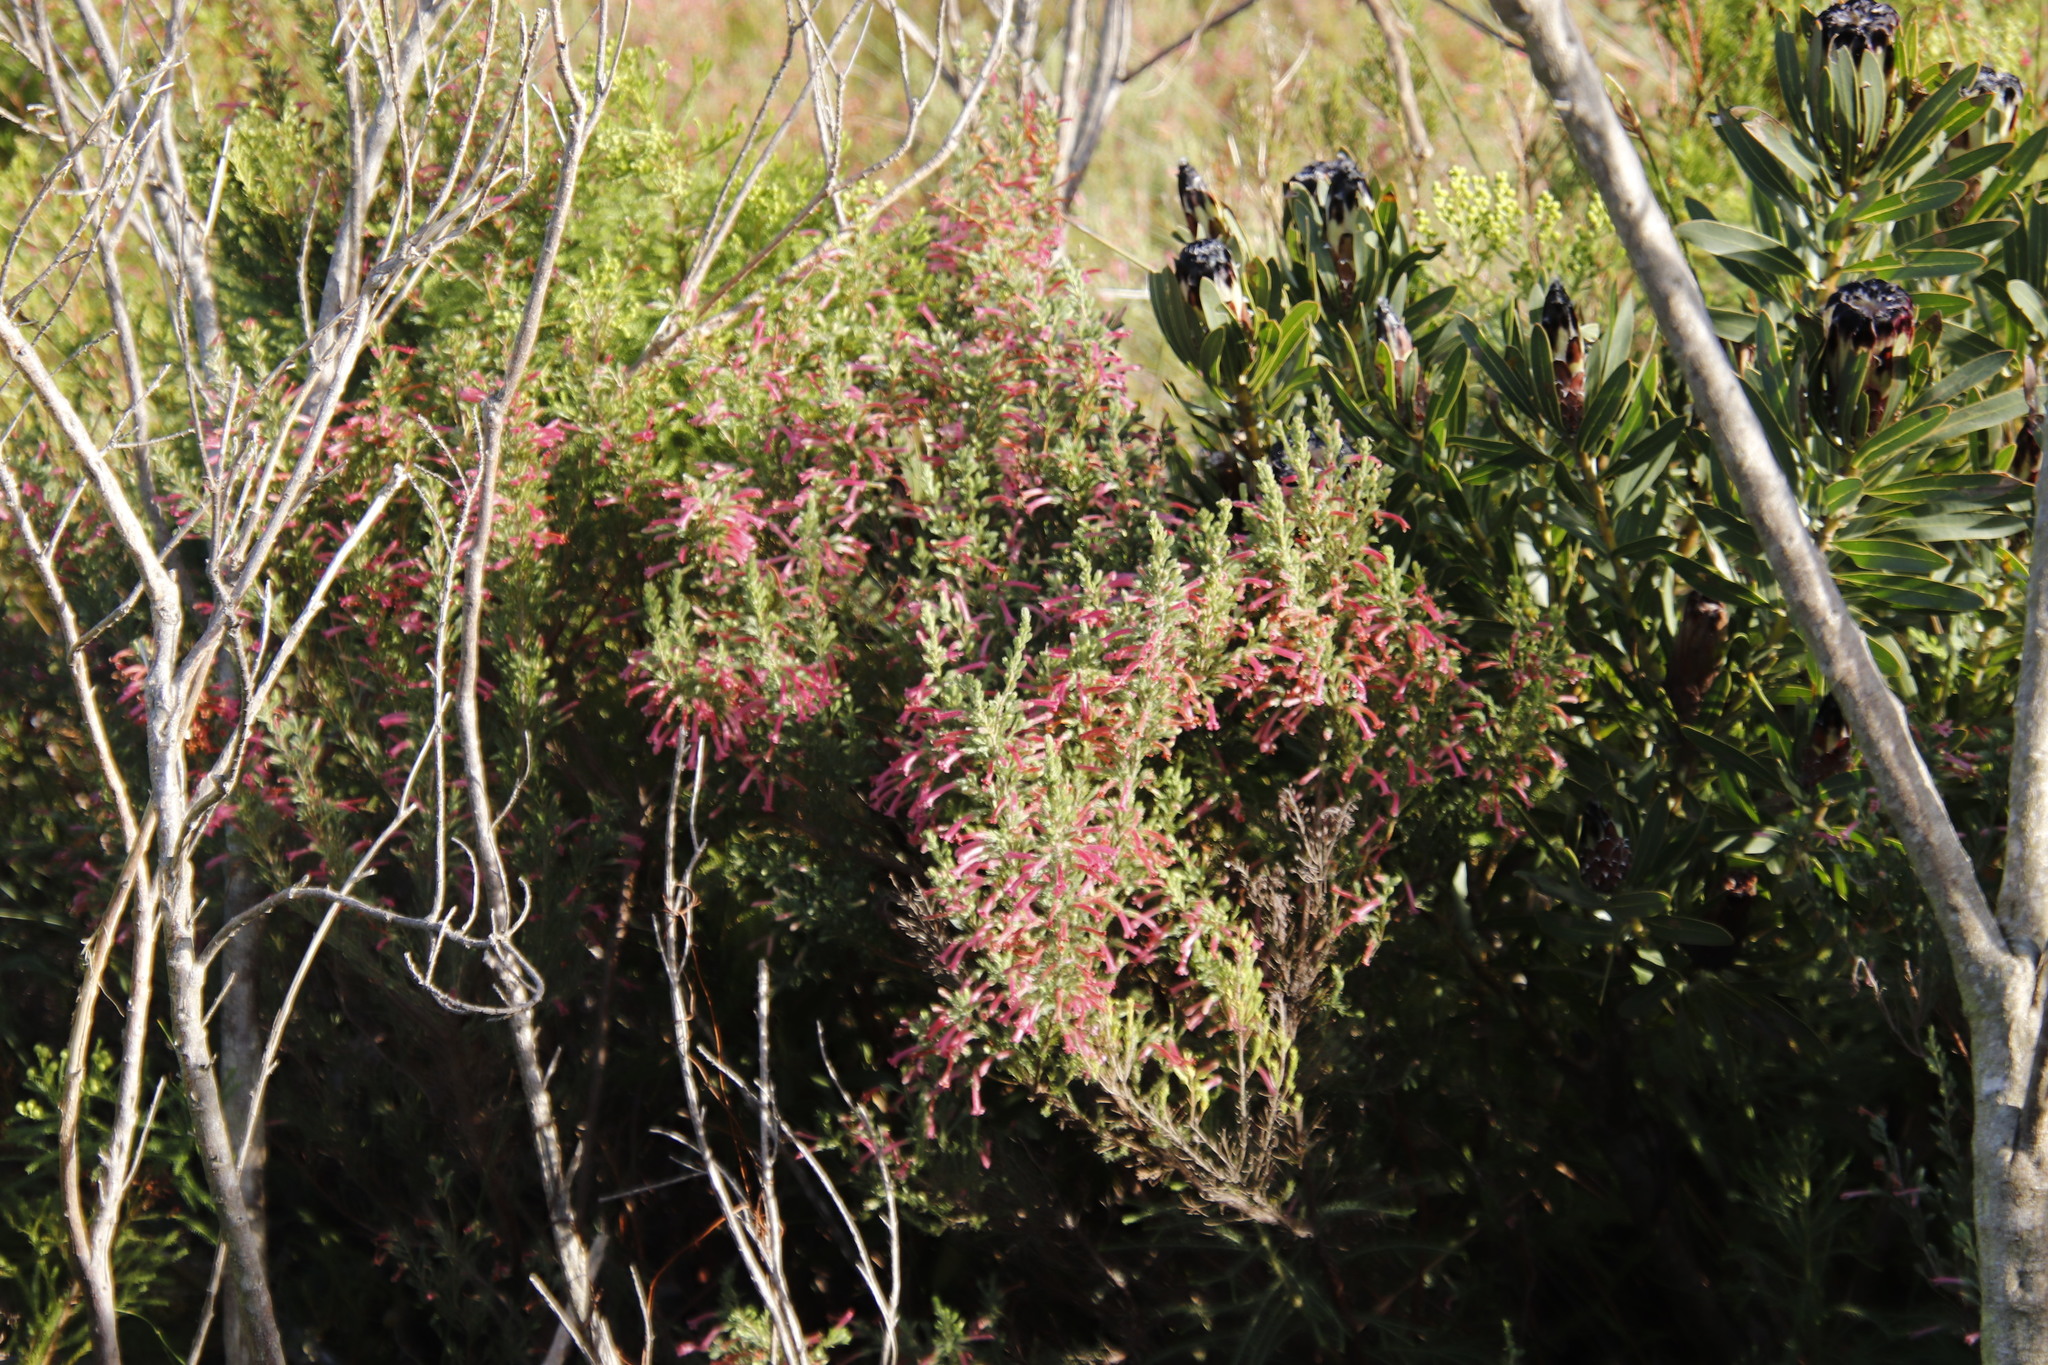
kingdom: Plantae
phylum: Tracheophyta
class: Magnoliopsida
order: Ericales
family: Ericaceae
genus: Erica
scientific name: Erica curviflora
